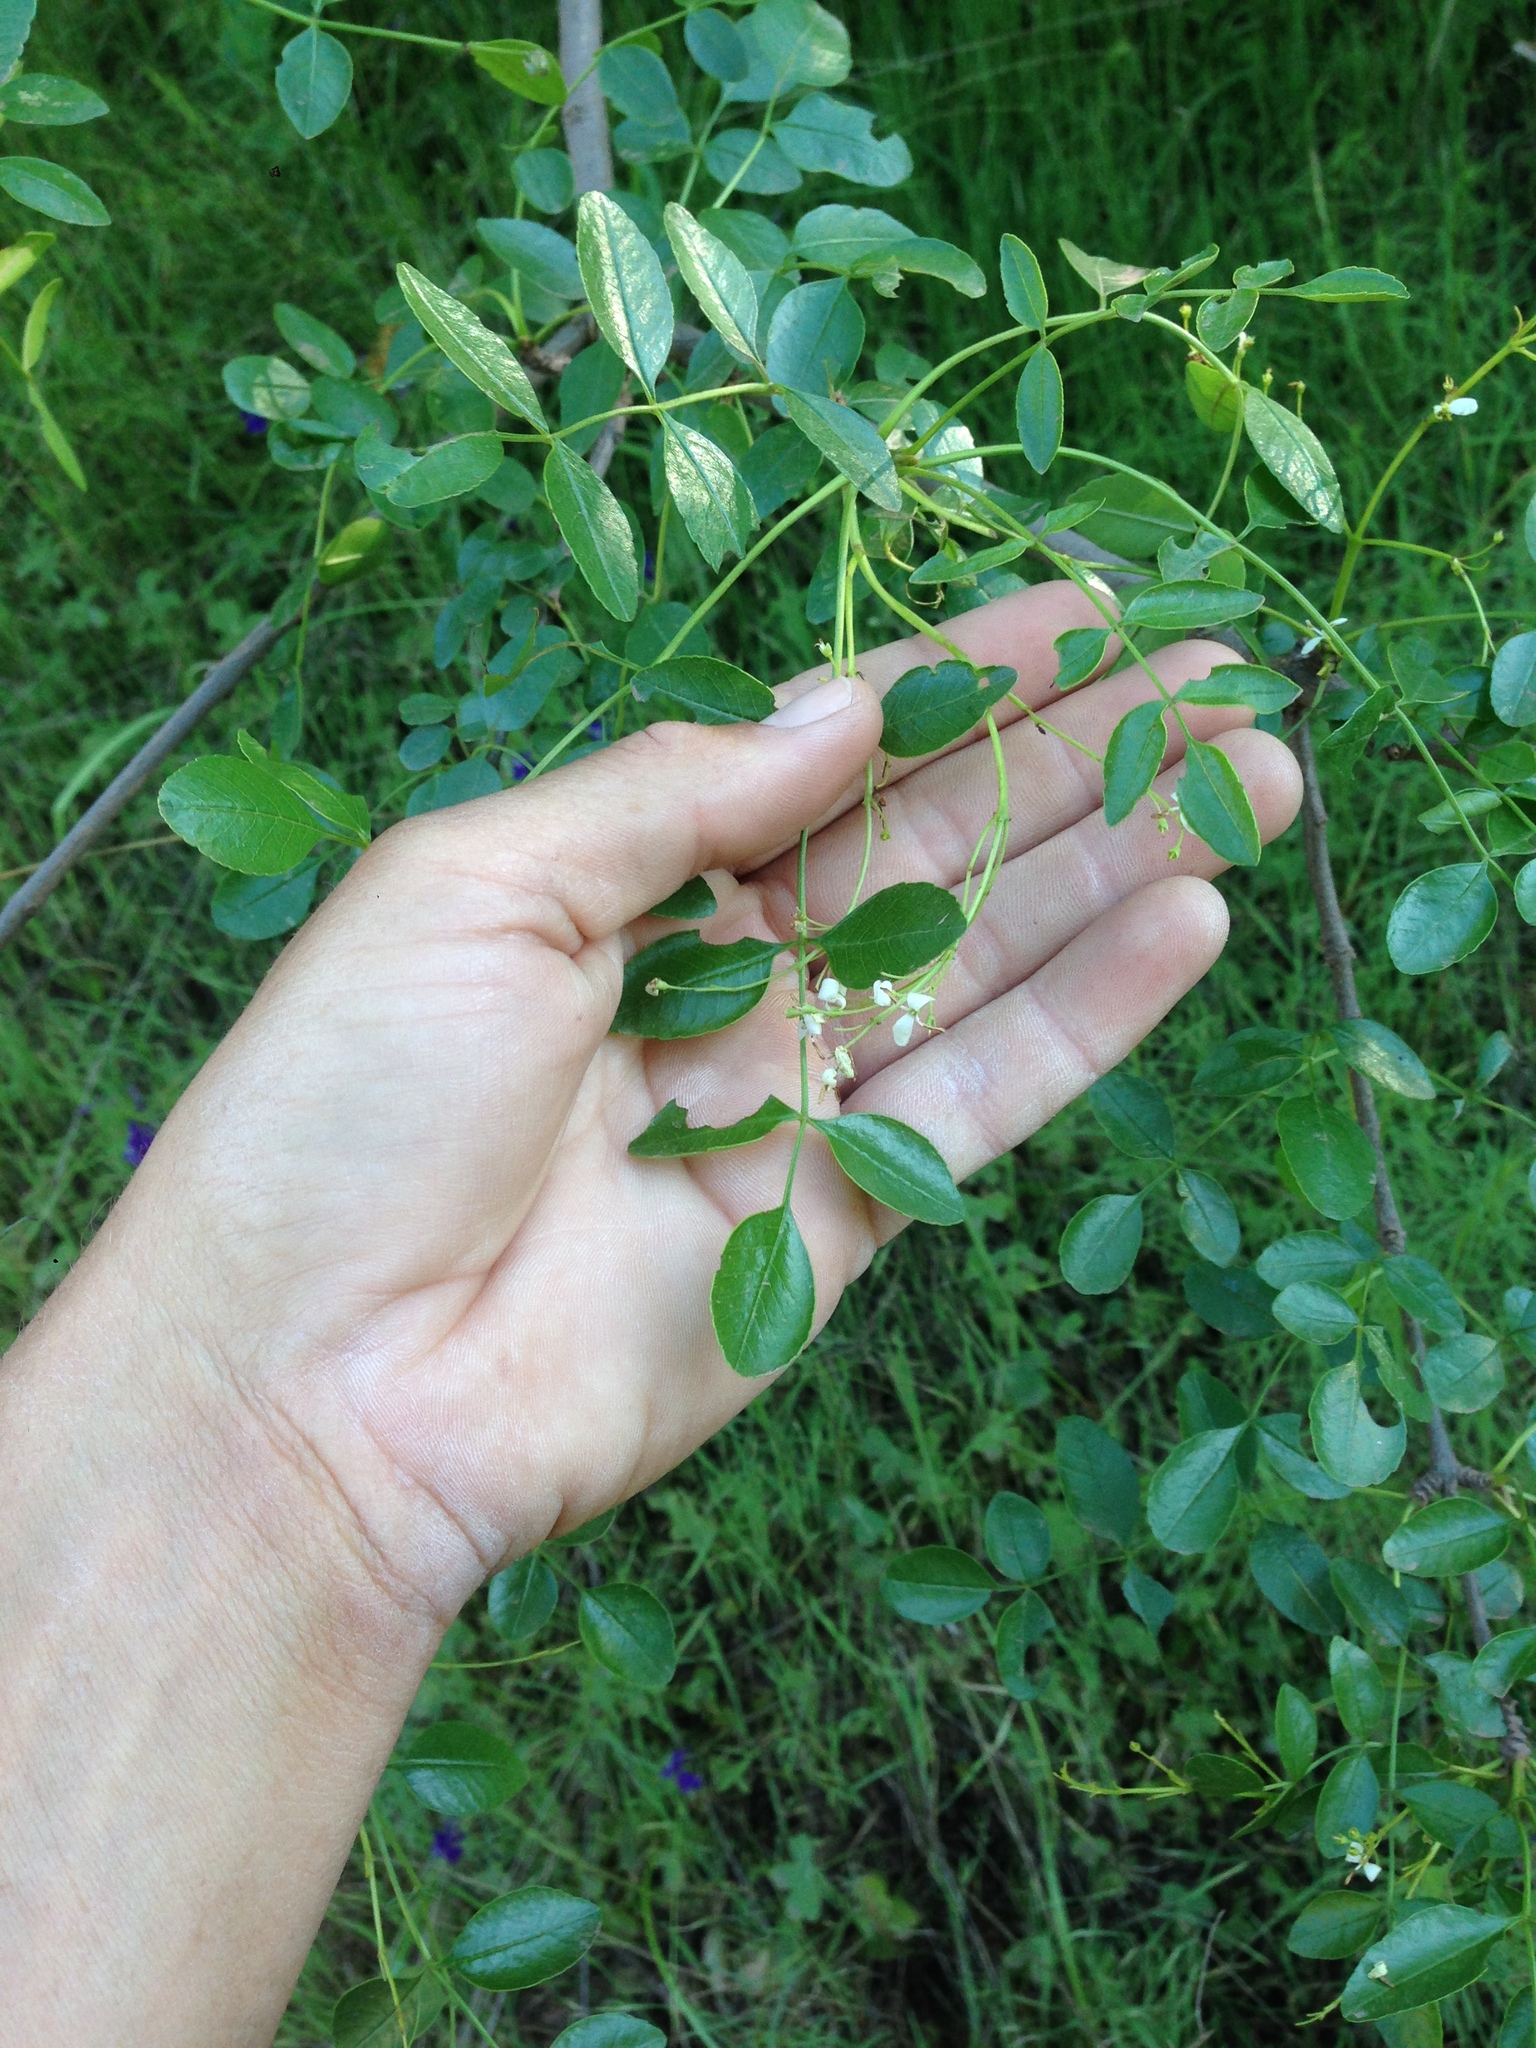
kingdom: Plantae
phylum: Tracheophyta
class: Magnoliopsida
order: Lamiales
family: Oleaceae
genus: Fraxinus
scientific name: Fraxinus dipetala
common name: California ash
